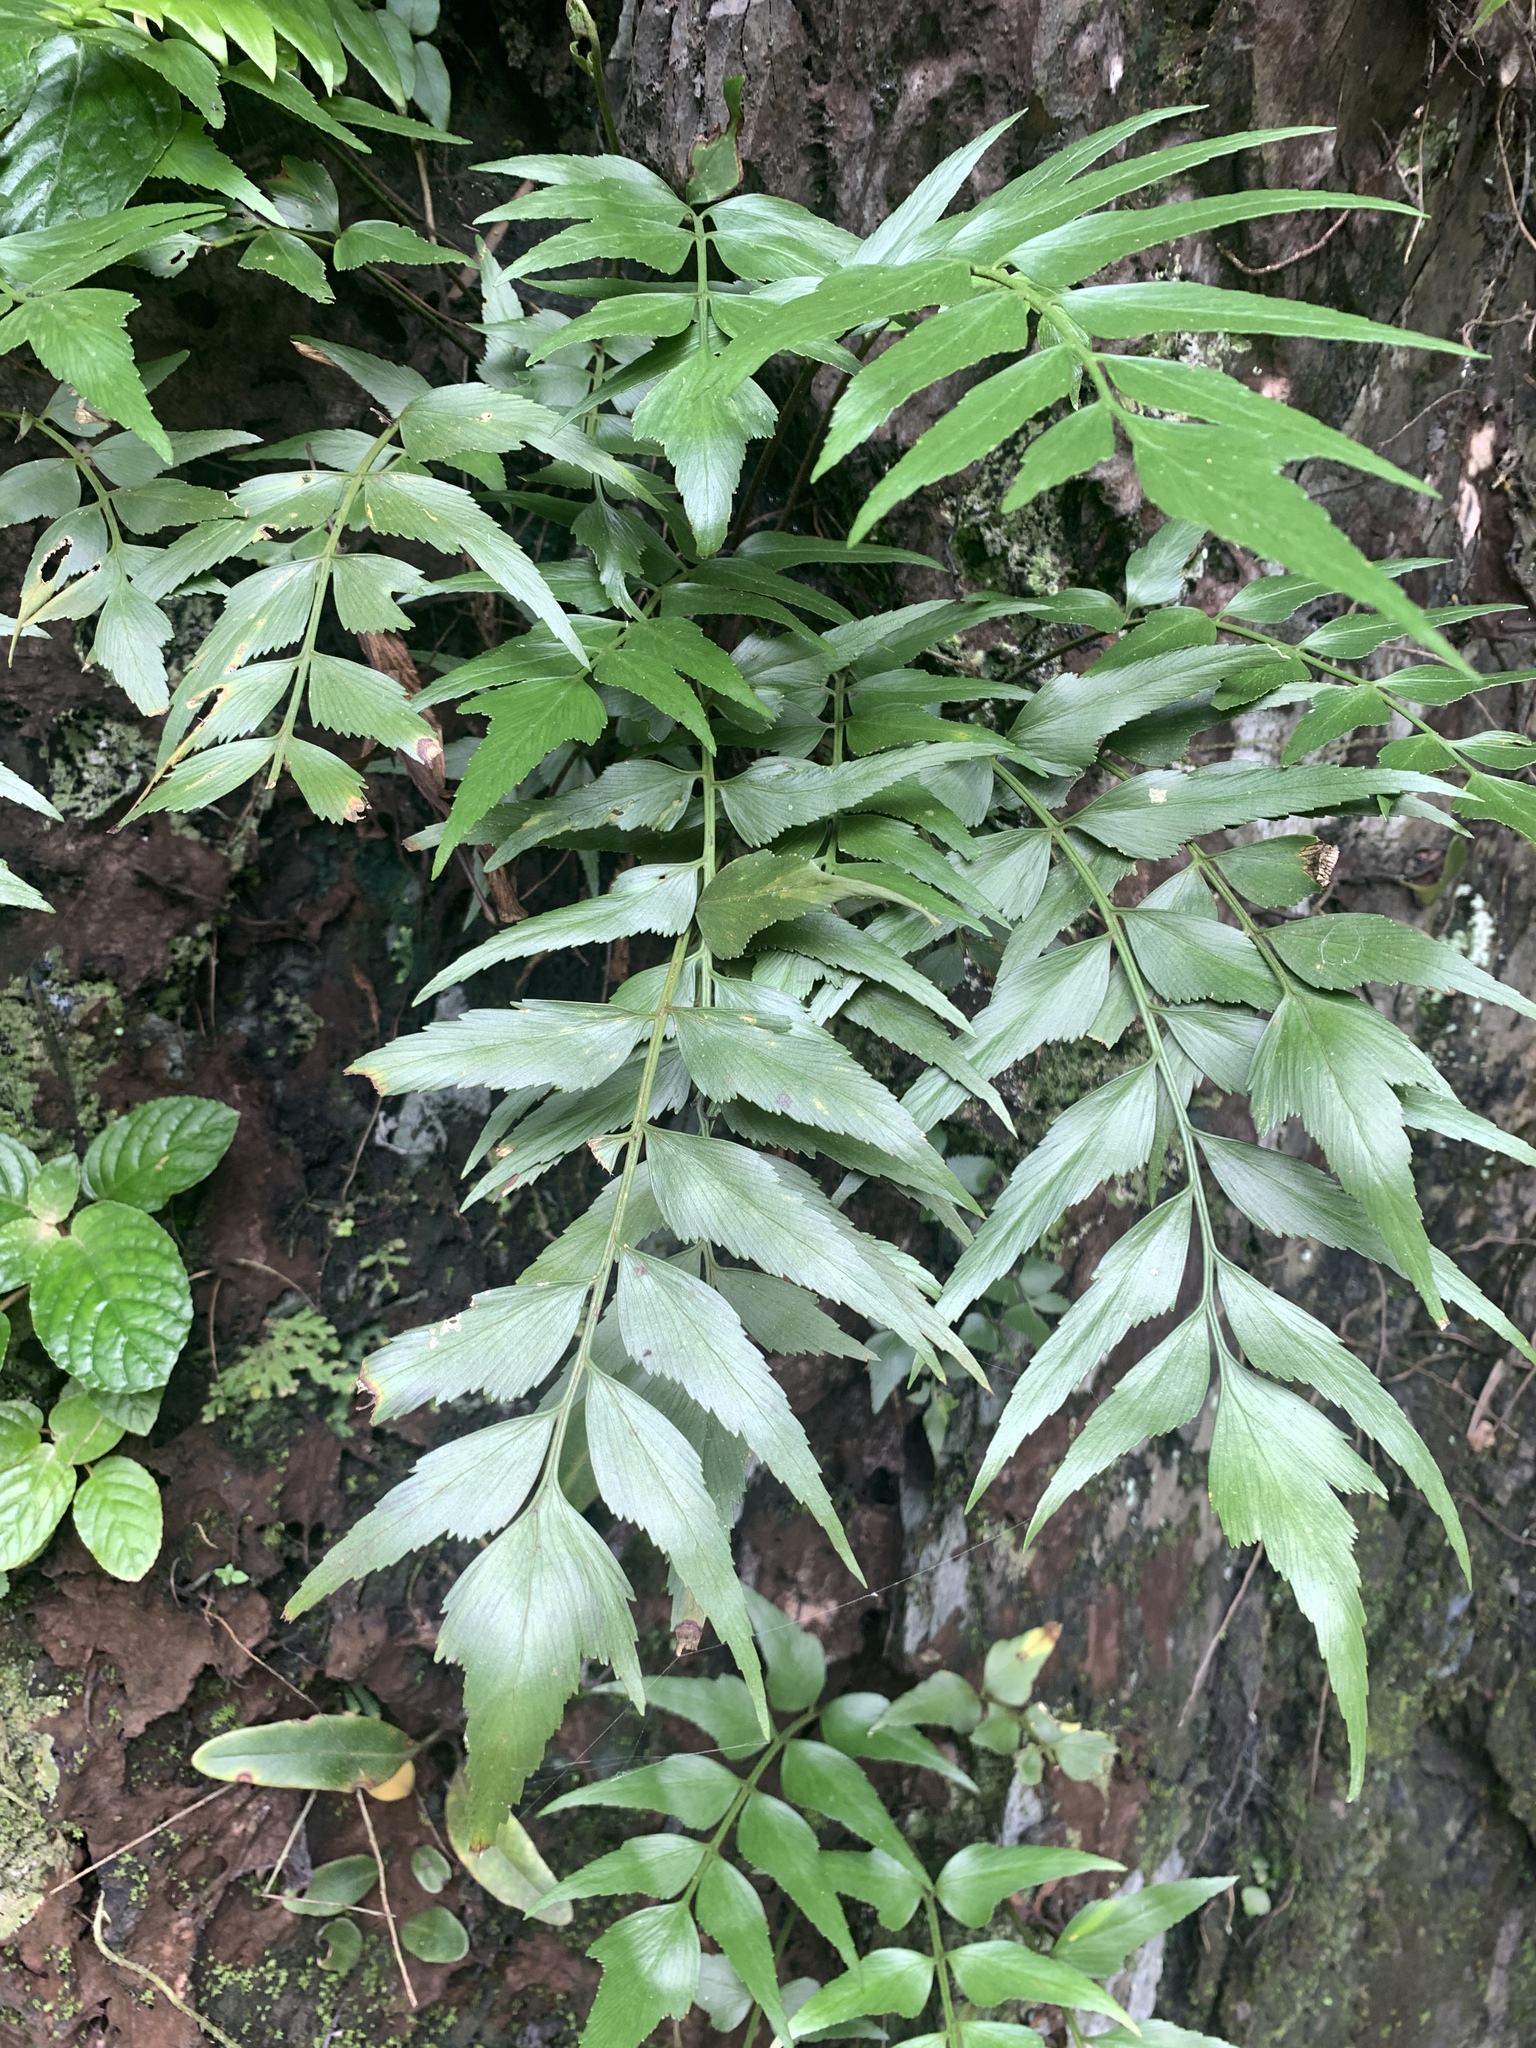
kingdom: Plantae
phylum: Tracheophyta
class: Polypodiopsida
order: Polypodiales
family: Aspleniaceae
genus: Asplenium
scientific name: Asplenium falcatum
